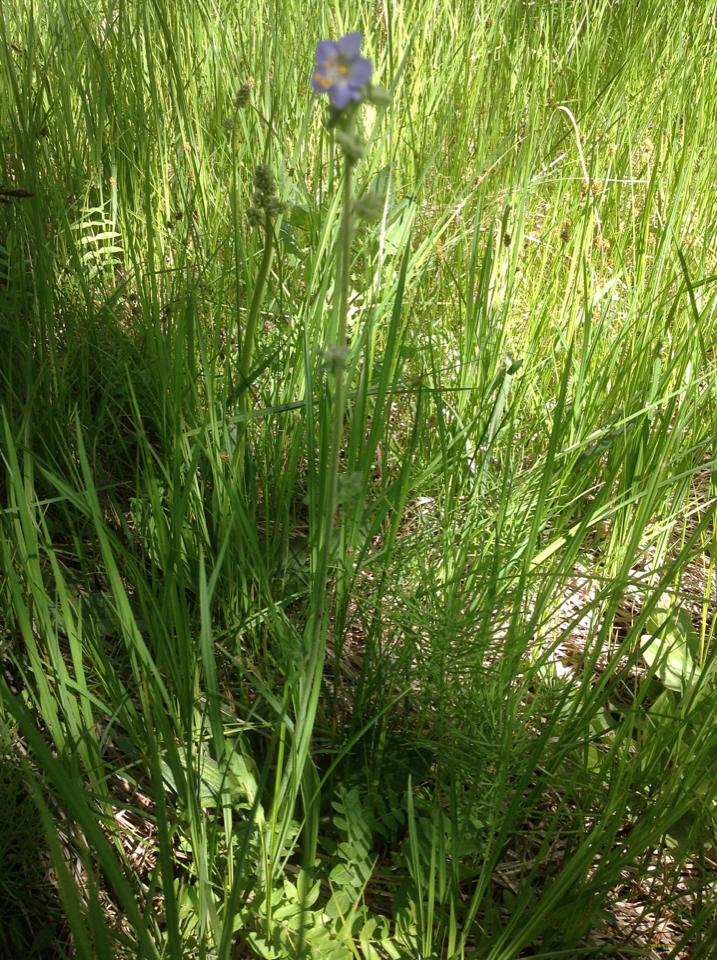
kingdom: Plantae
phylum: Tracheophyta
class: Magnoliopsida
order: Ericales
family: Polemoniaceae
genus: Polemonium
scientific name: Polemonium occidentale
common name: Western jacob's-ladder
